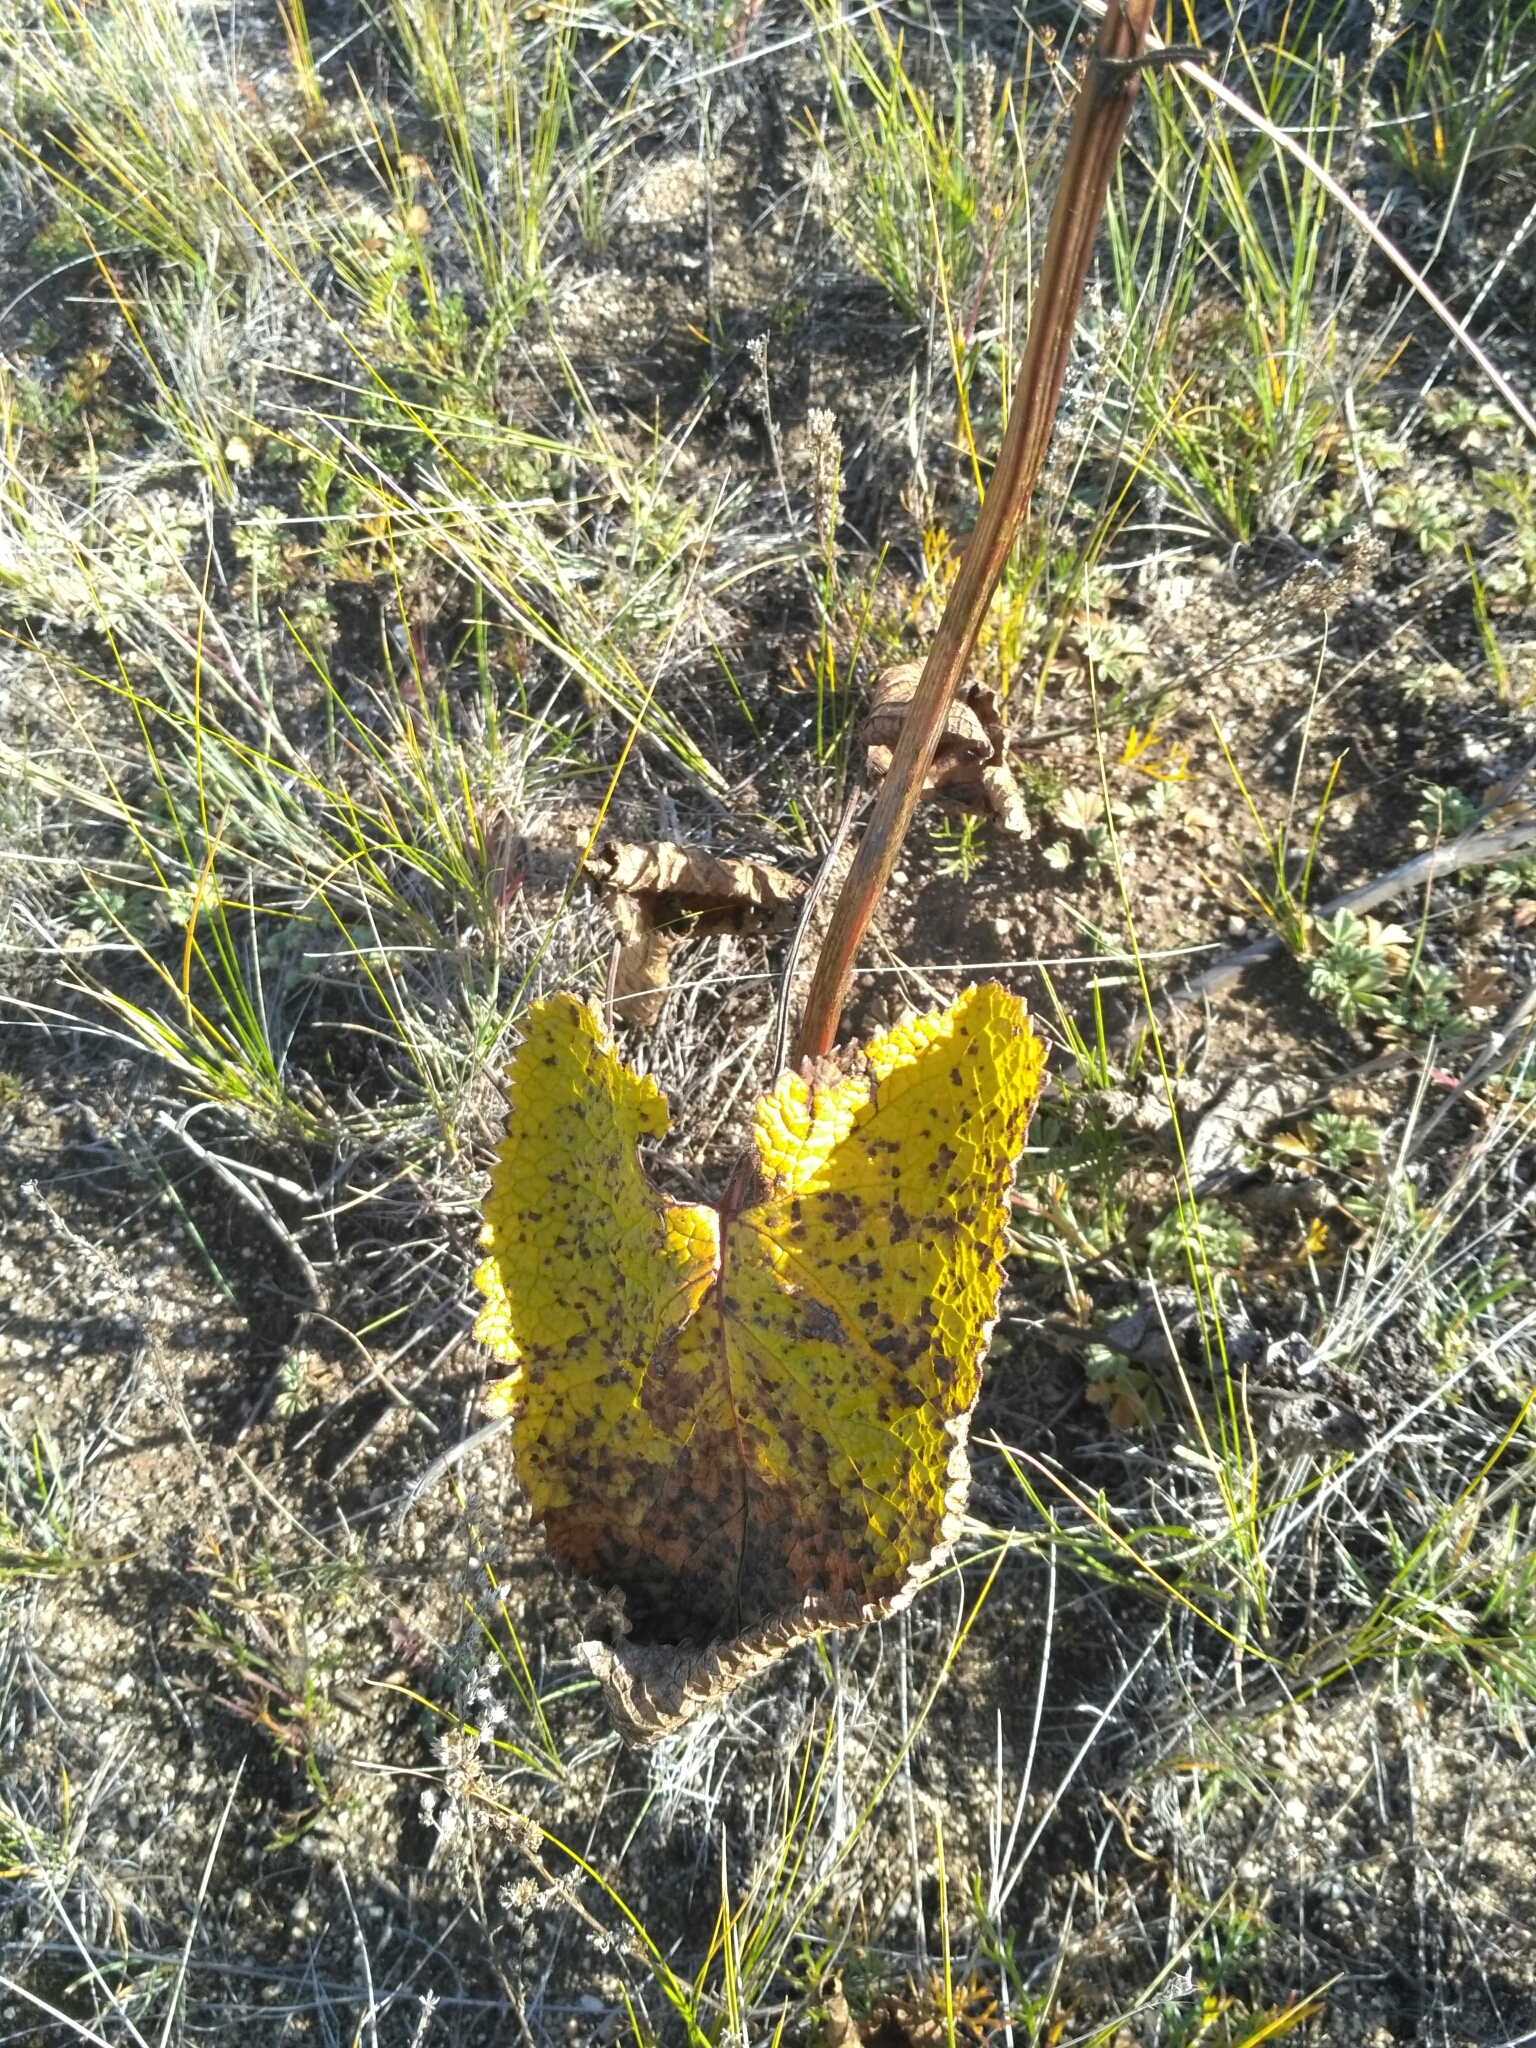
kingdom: Plantae
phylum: Tracheophyta
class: Magnoliopsida
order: Lamiales
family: Lamiaceae
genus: Phlomoides
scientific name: Phlomoides tuberosa
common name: Tuberous jerusalem sage
